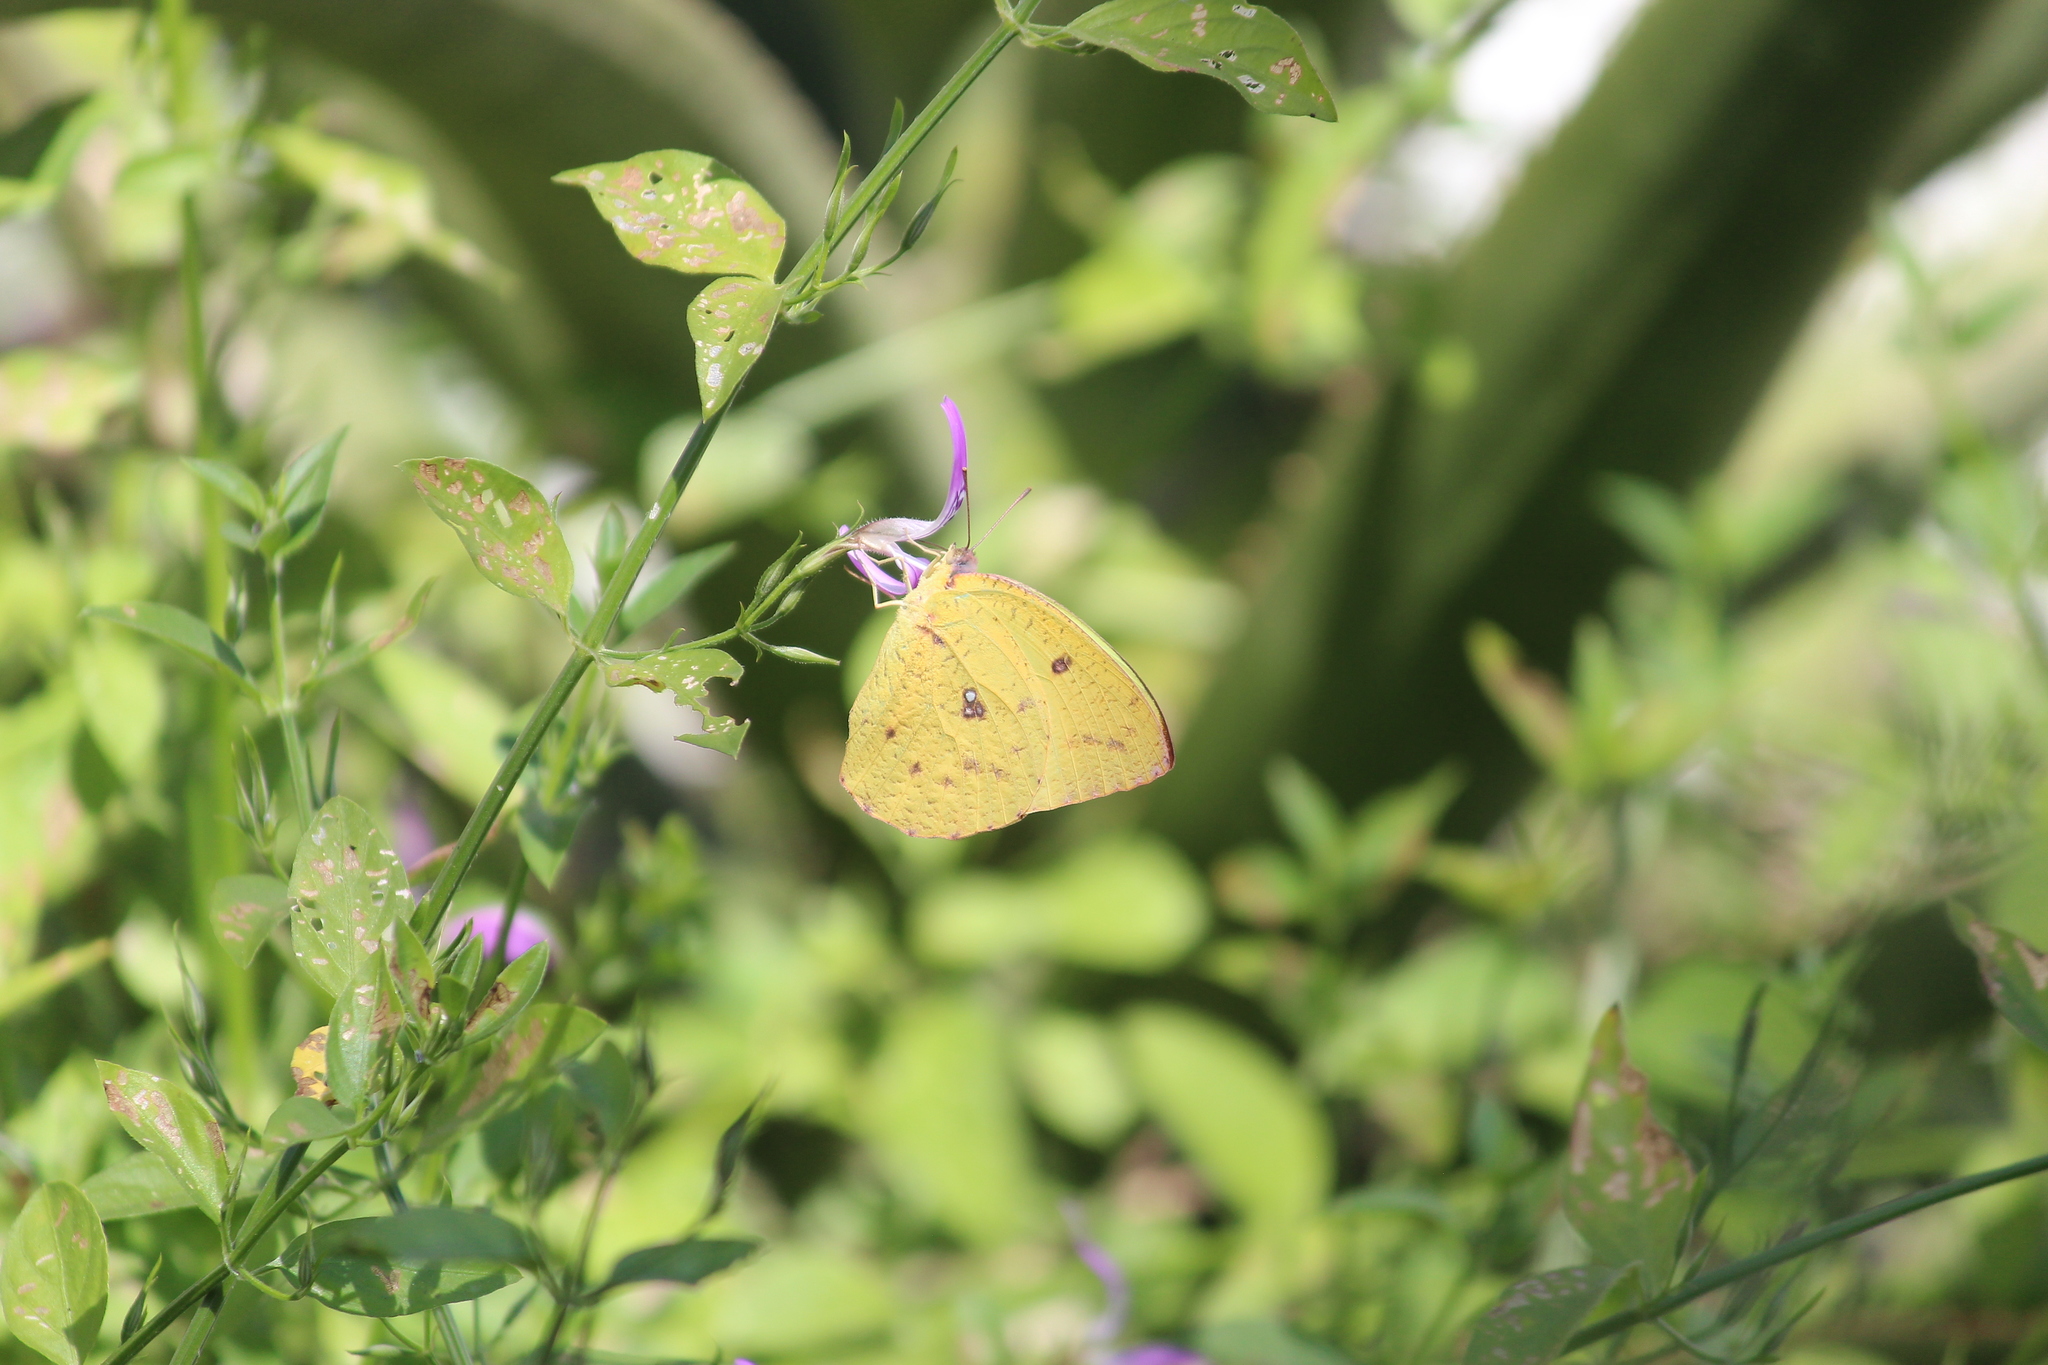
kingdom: Animalia
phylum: Arthropoda
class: Insecta
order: Lepidoptera
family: Pieridae
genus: Catopsilia
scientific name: Catopsilia florella
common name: African migrant
